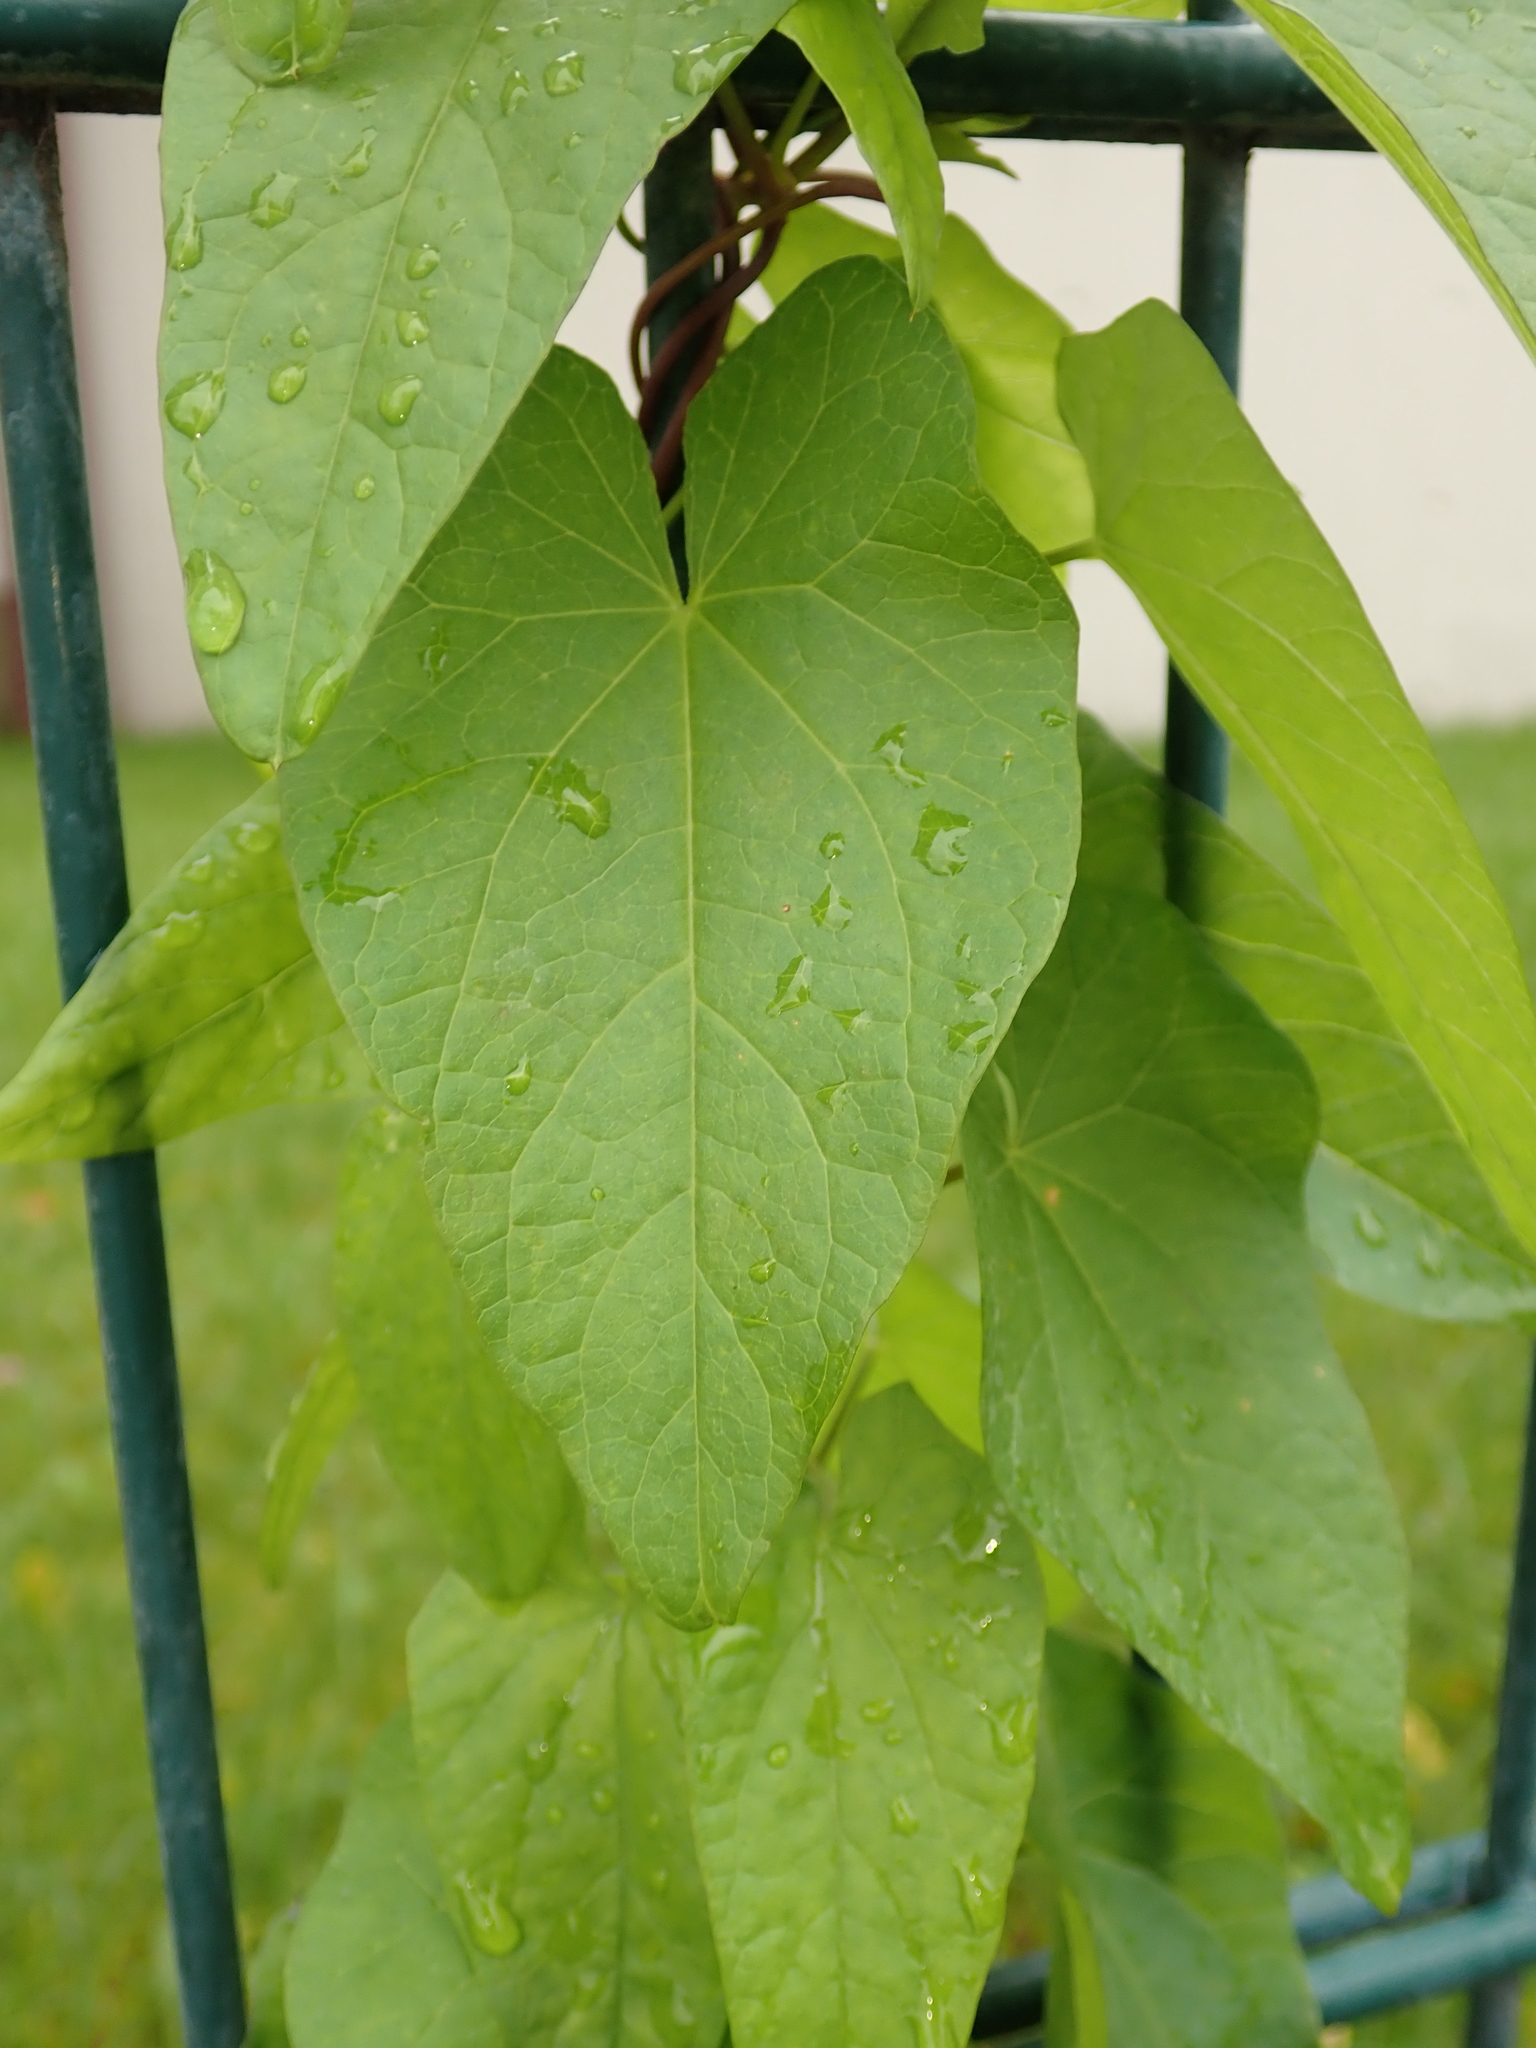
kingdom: Plantae
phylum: Tracheophyta
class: Magnoliopsida
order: Solanales
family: Convolvulaceae
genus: Calystegia
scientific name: Calystegia sepium
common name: Hedge bindweed
